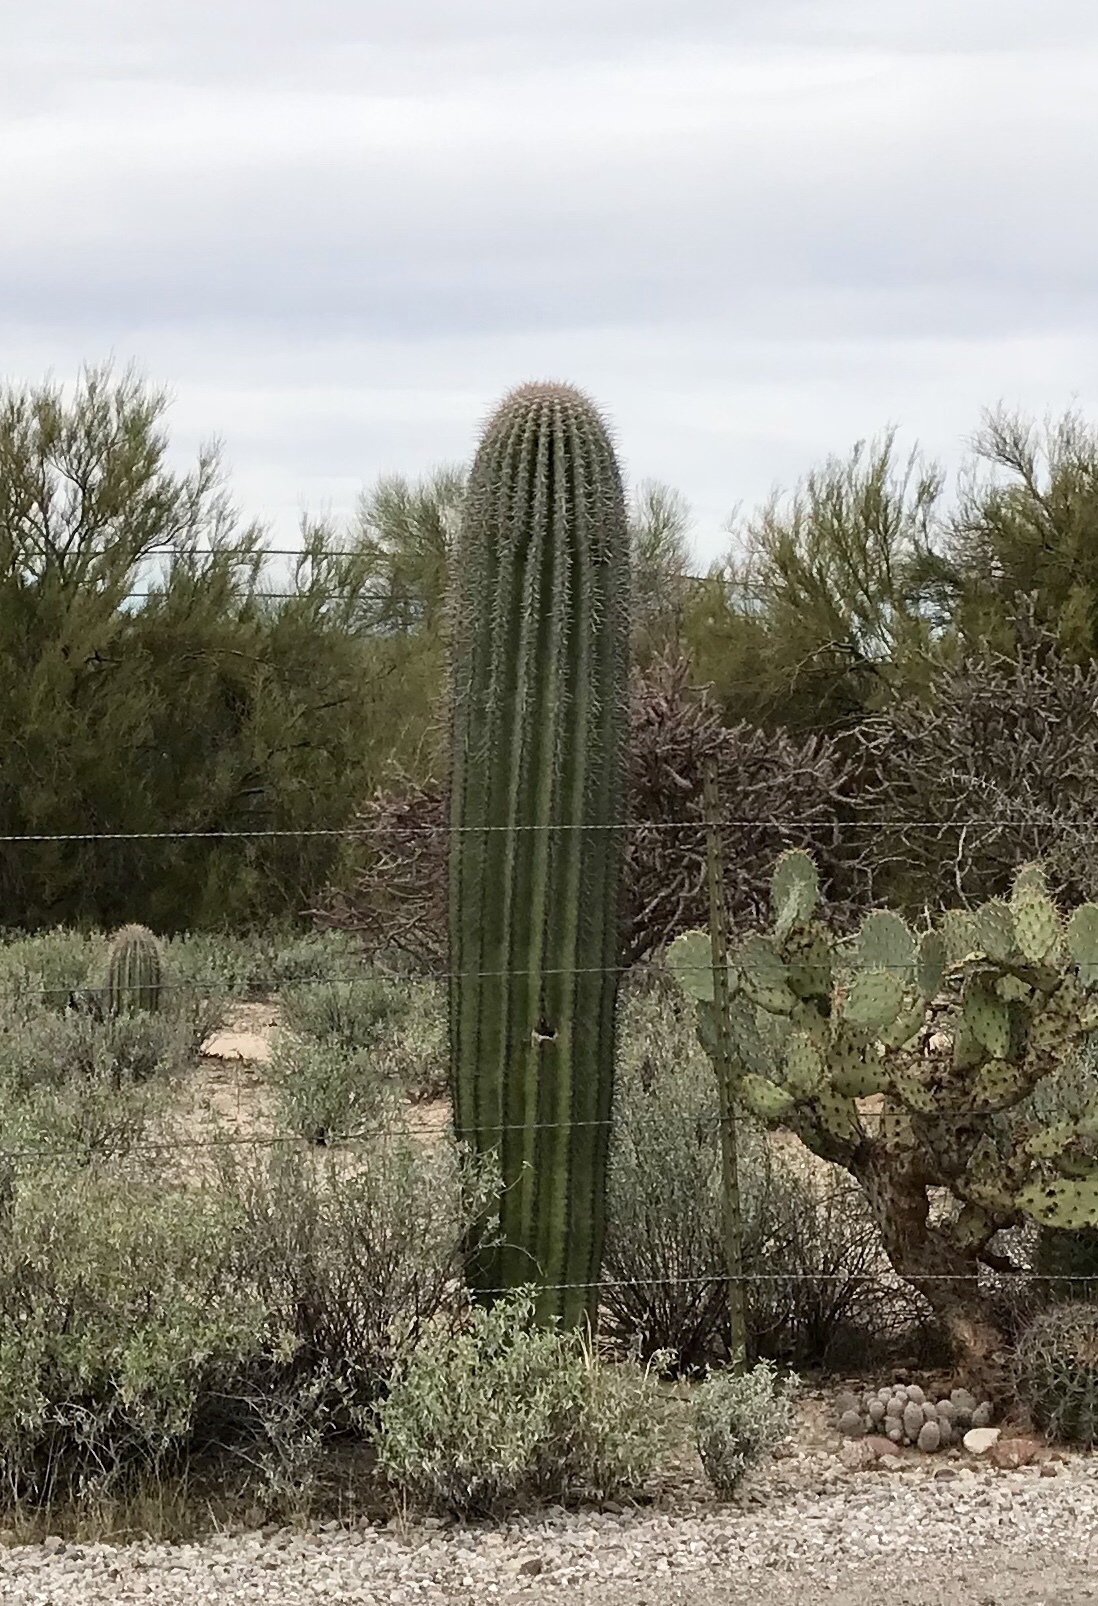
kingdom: Plantae
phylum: Tracheophyta
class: Magnoliopsida
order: Caryophyllales
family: Cactaceae
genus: Carnegiea
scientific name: Carnegiea gigantea
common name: Saguaro
